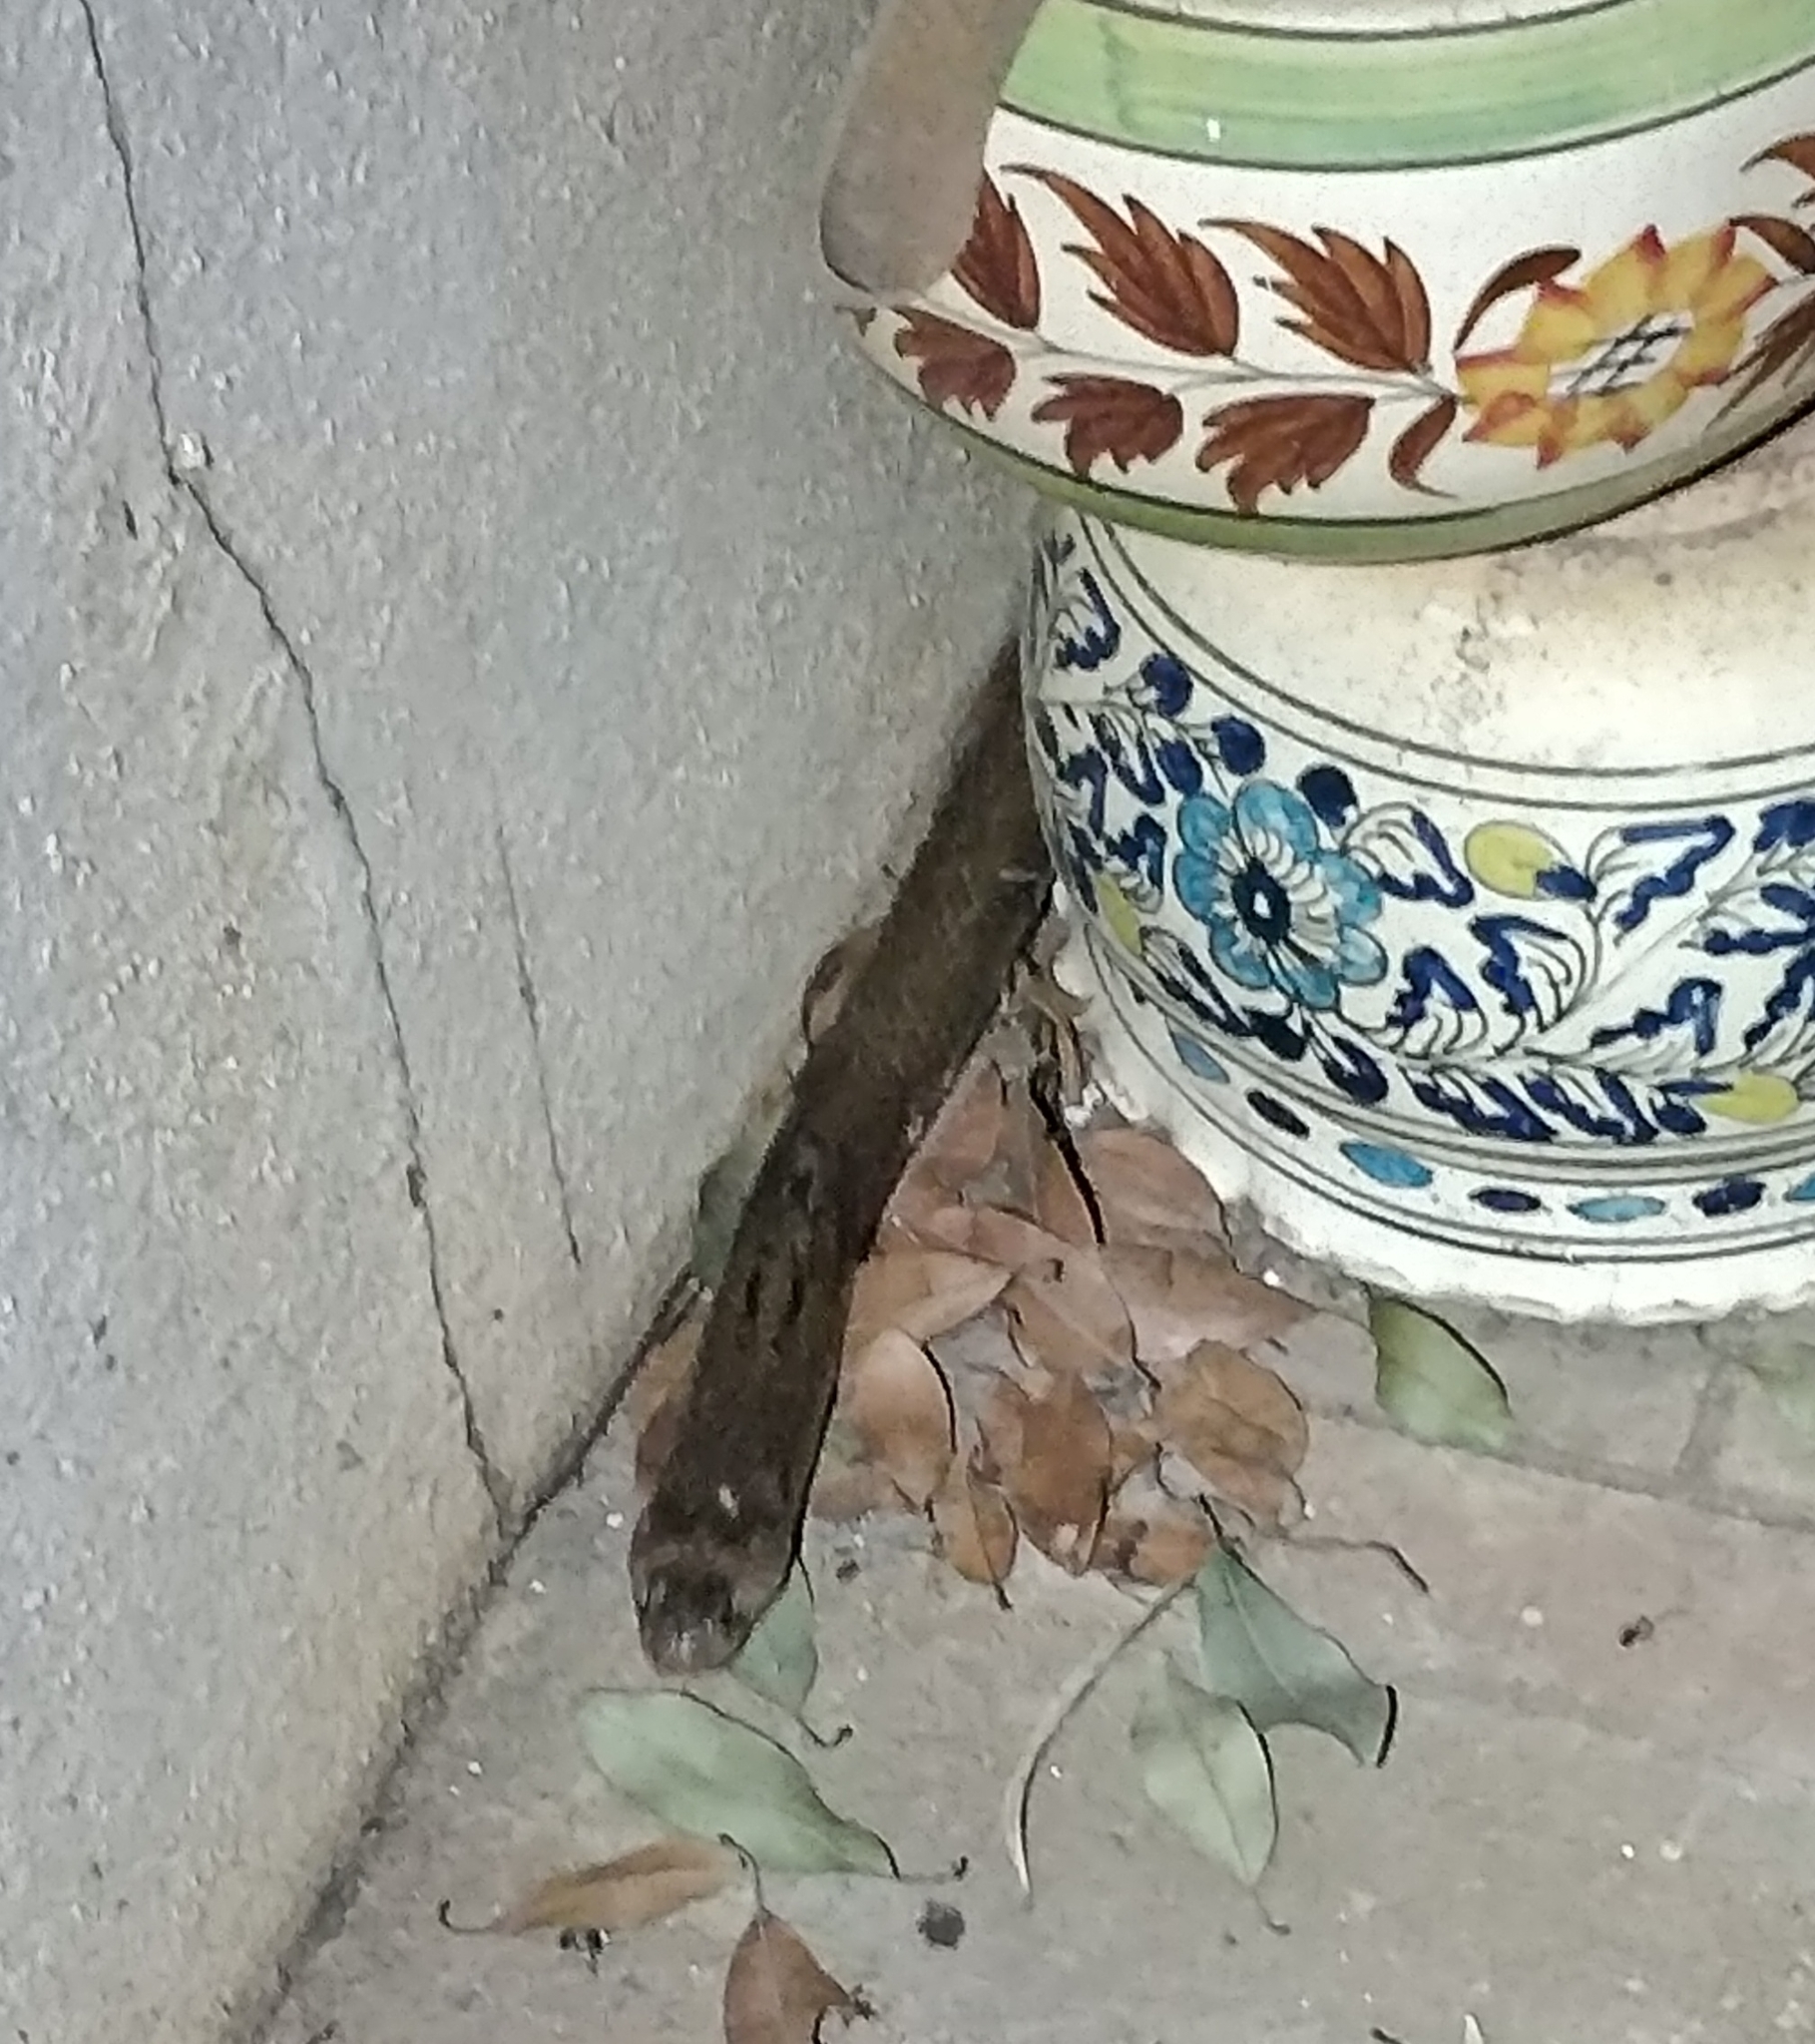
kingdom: Animalia
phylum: Chordata
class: Squamata
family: Elapidae
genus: Naja
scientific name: Naja naja
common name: Indian cobra
